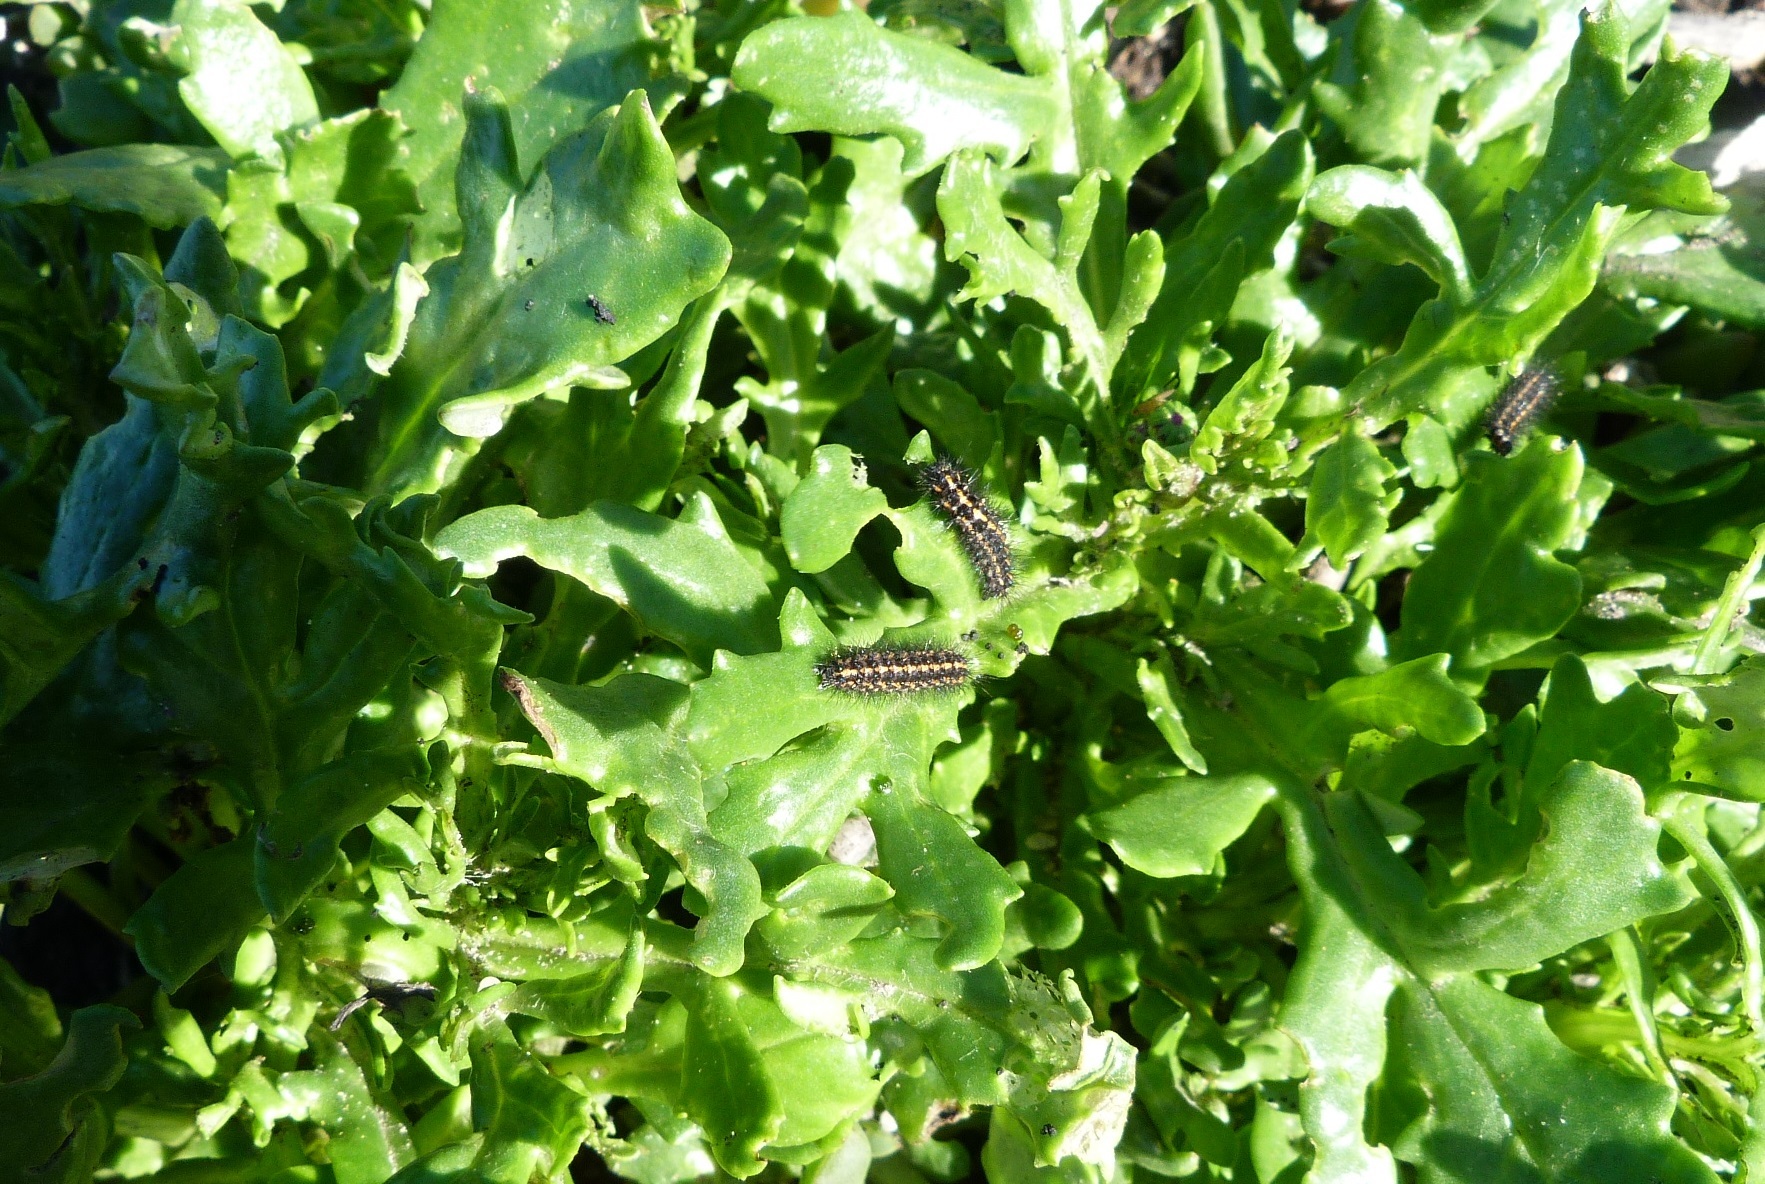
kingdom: Animalia
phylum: Arthropoda
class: Insecta
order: Lepidoptera
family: Erebidae
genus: Nyctemera
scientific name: Nyctemera annulatum
